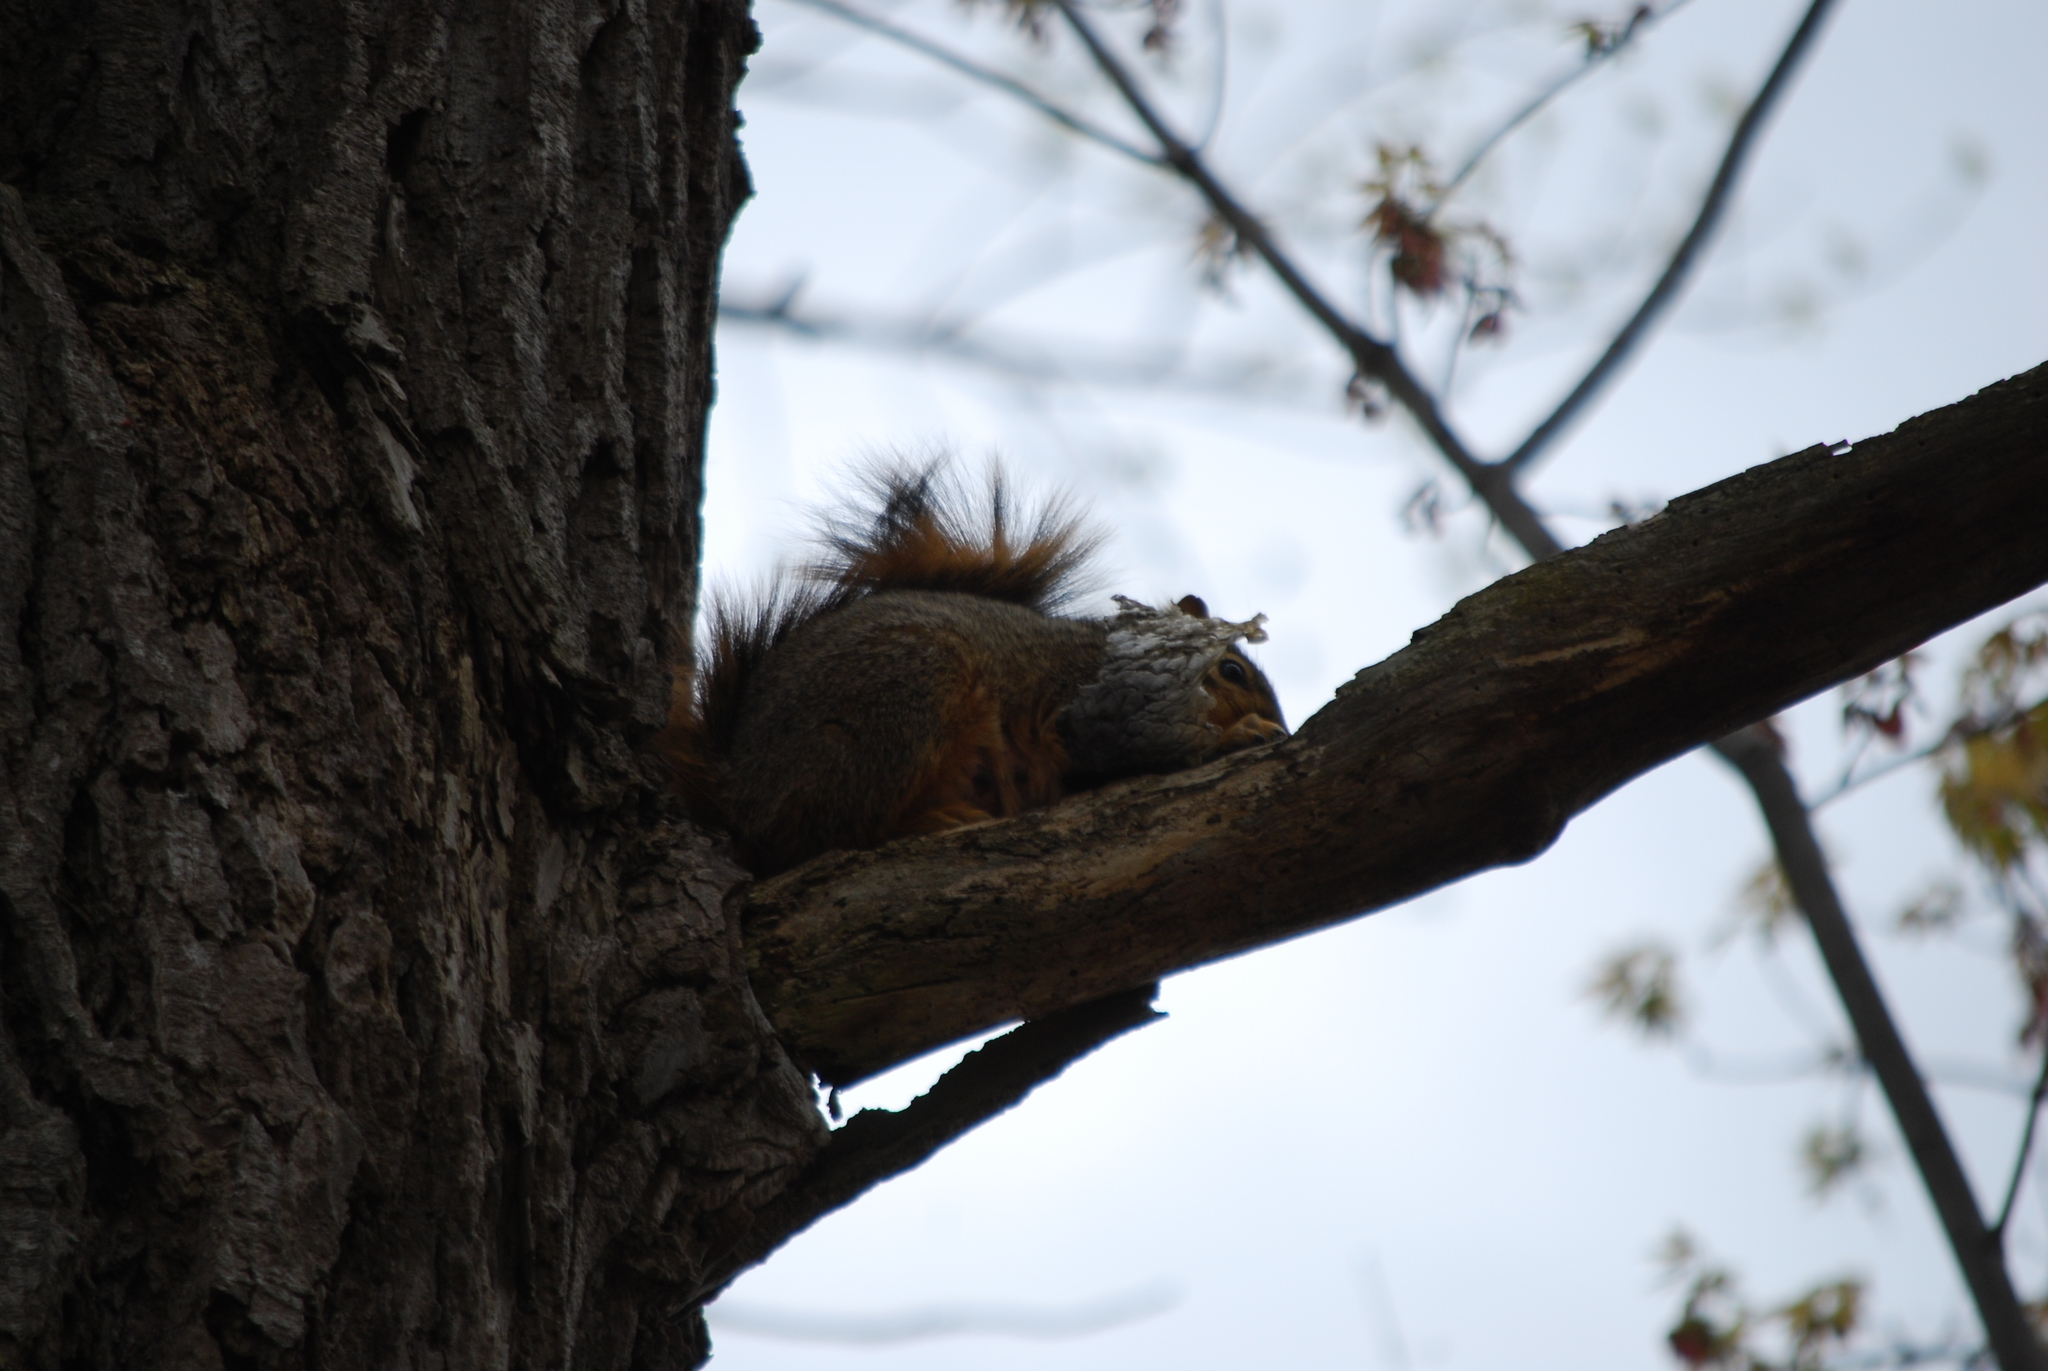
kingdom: Animalia
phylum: Chordata
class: Mammalia
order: Rodentia
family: Sciuridae
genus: Sciurus
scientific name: Sciurus niger
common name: Fox squirrel
